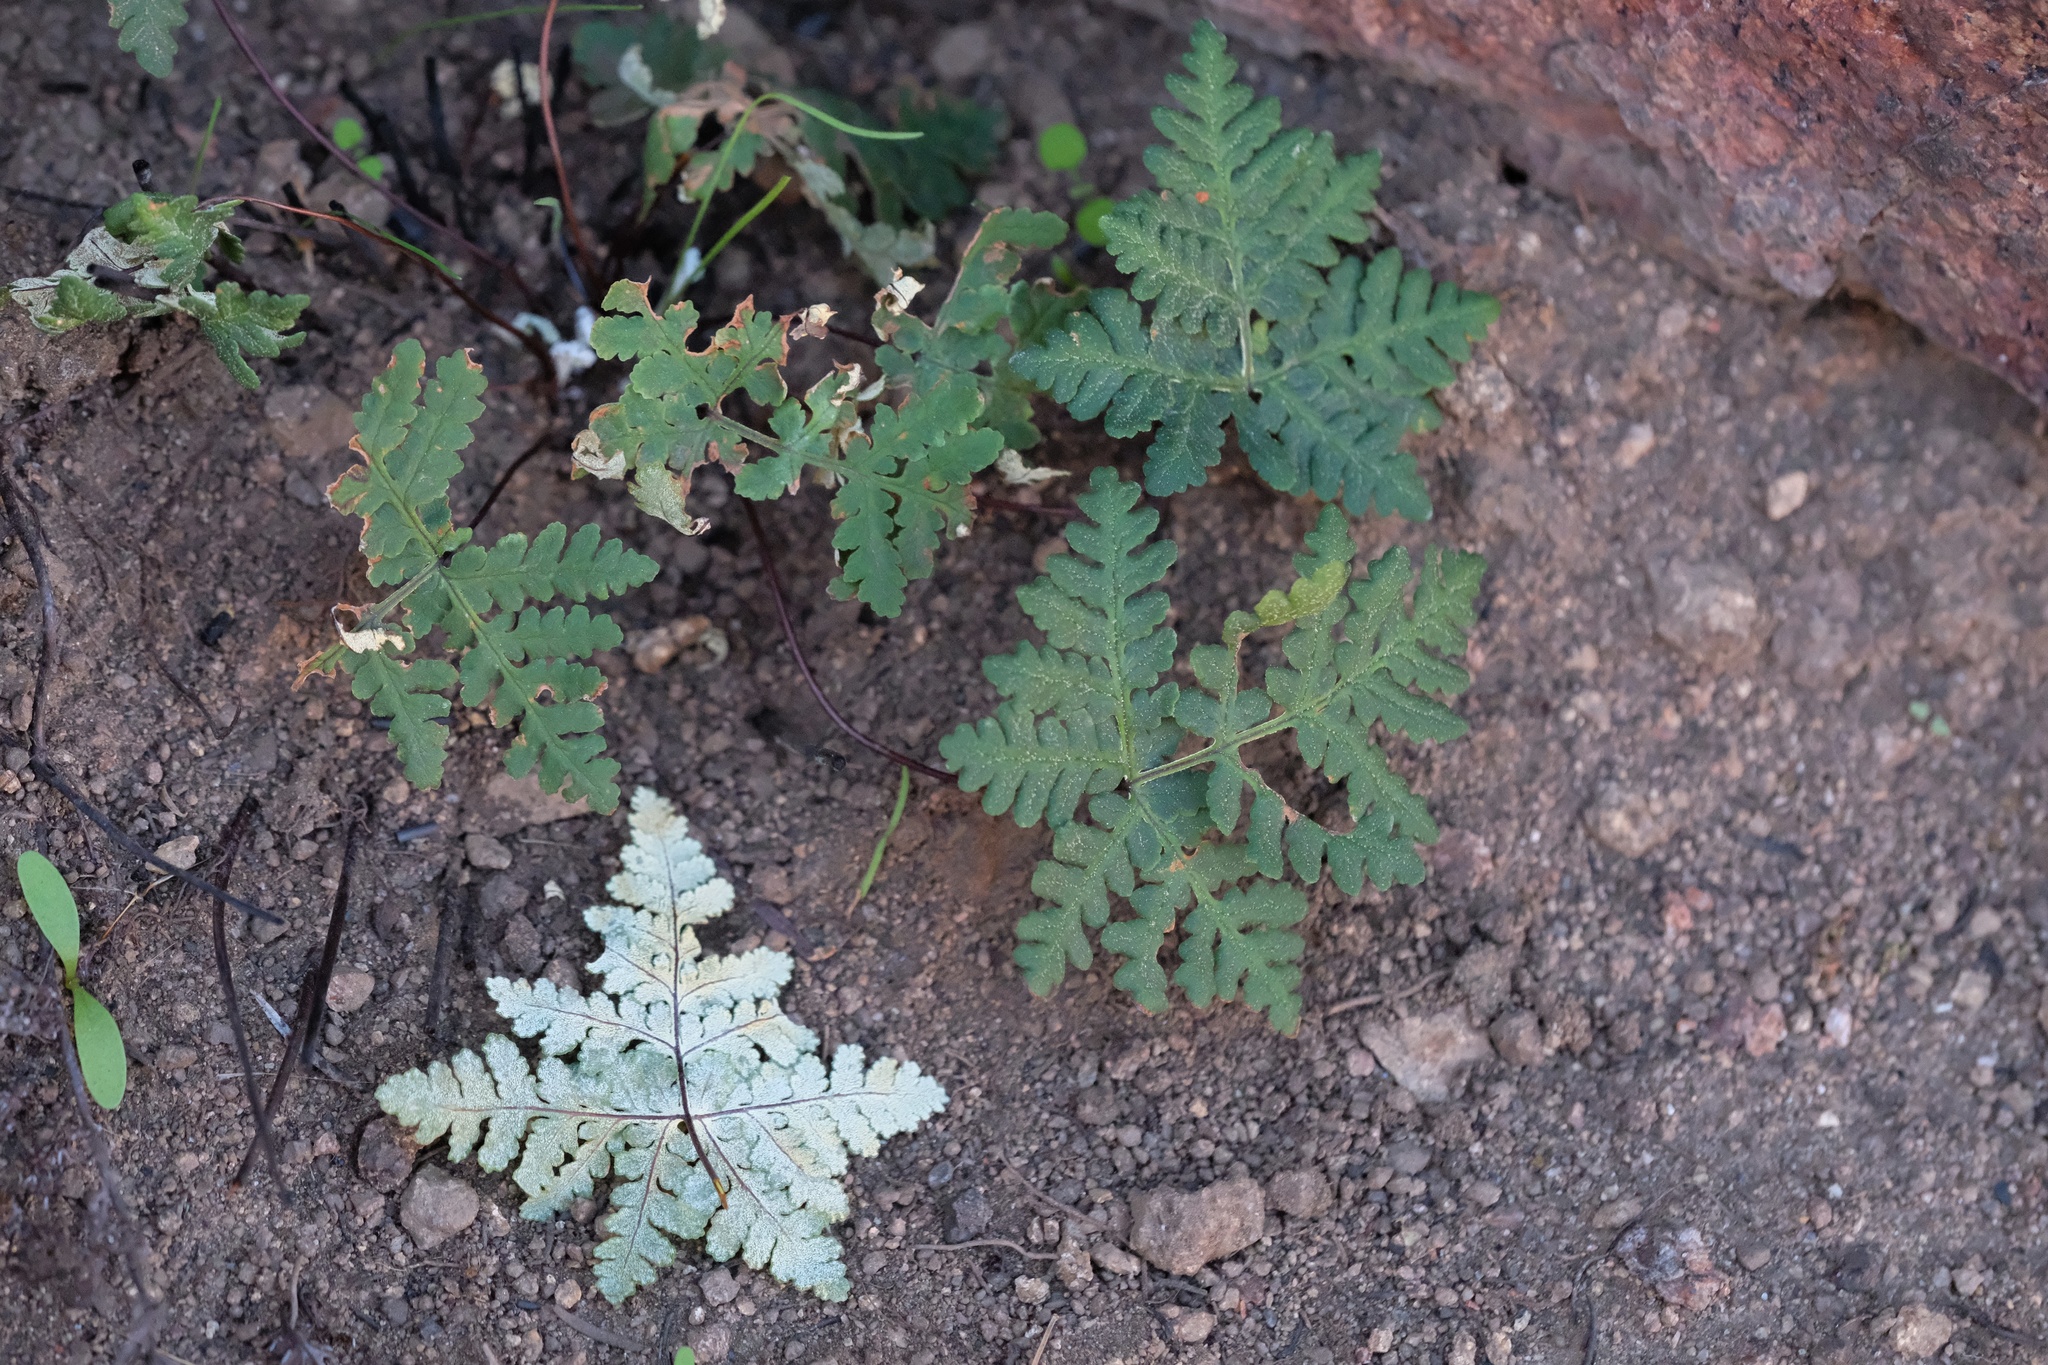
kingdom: Plantae
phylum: Tracheophyta
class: Polypodiopsida
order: Polypodiales
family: Pteridaceae
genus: Pentagramma
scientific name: Pentagramma rebmanii
